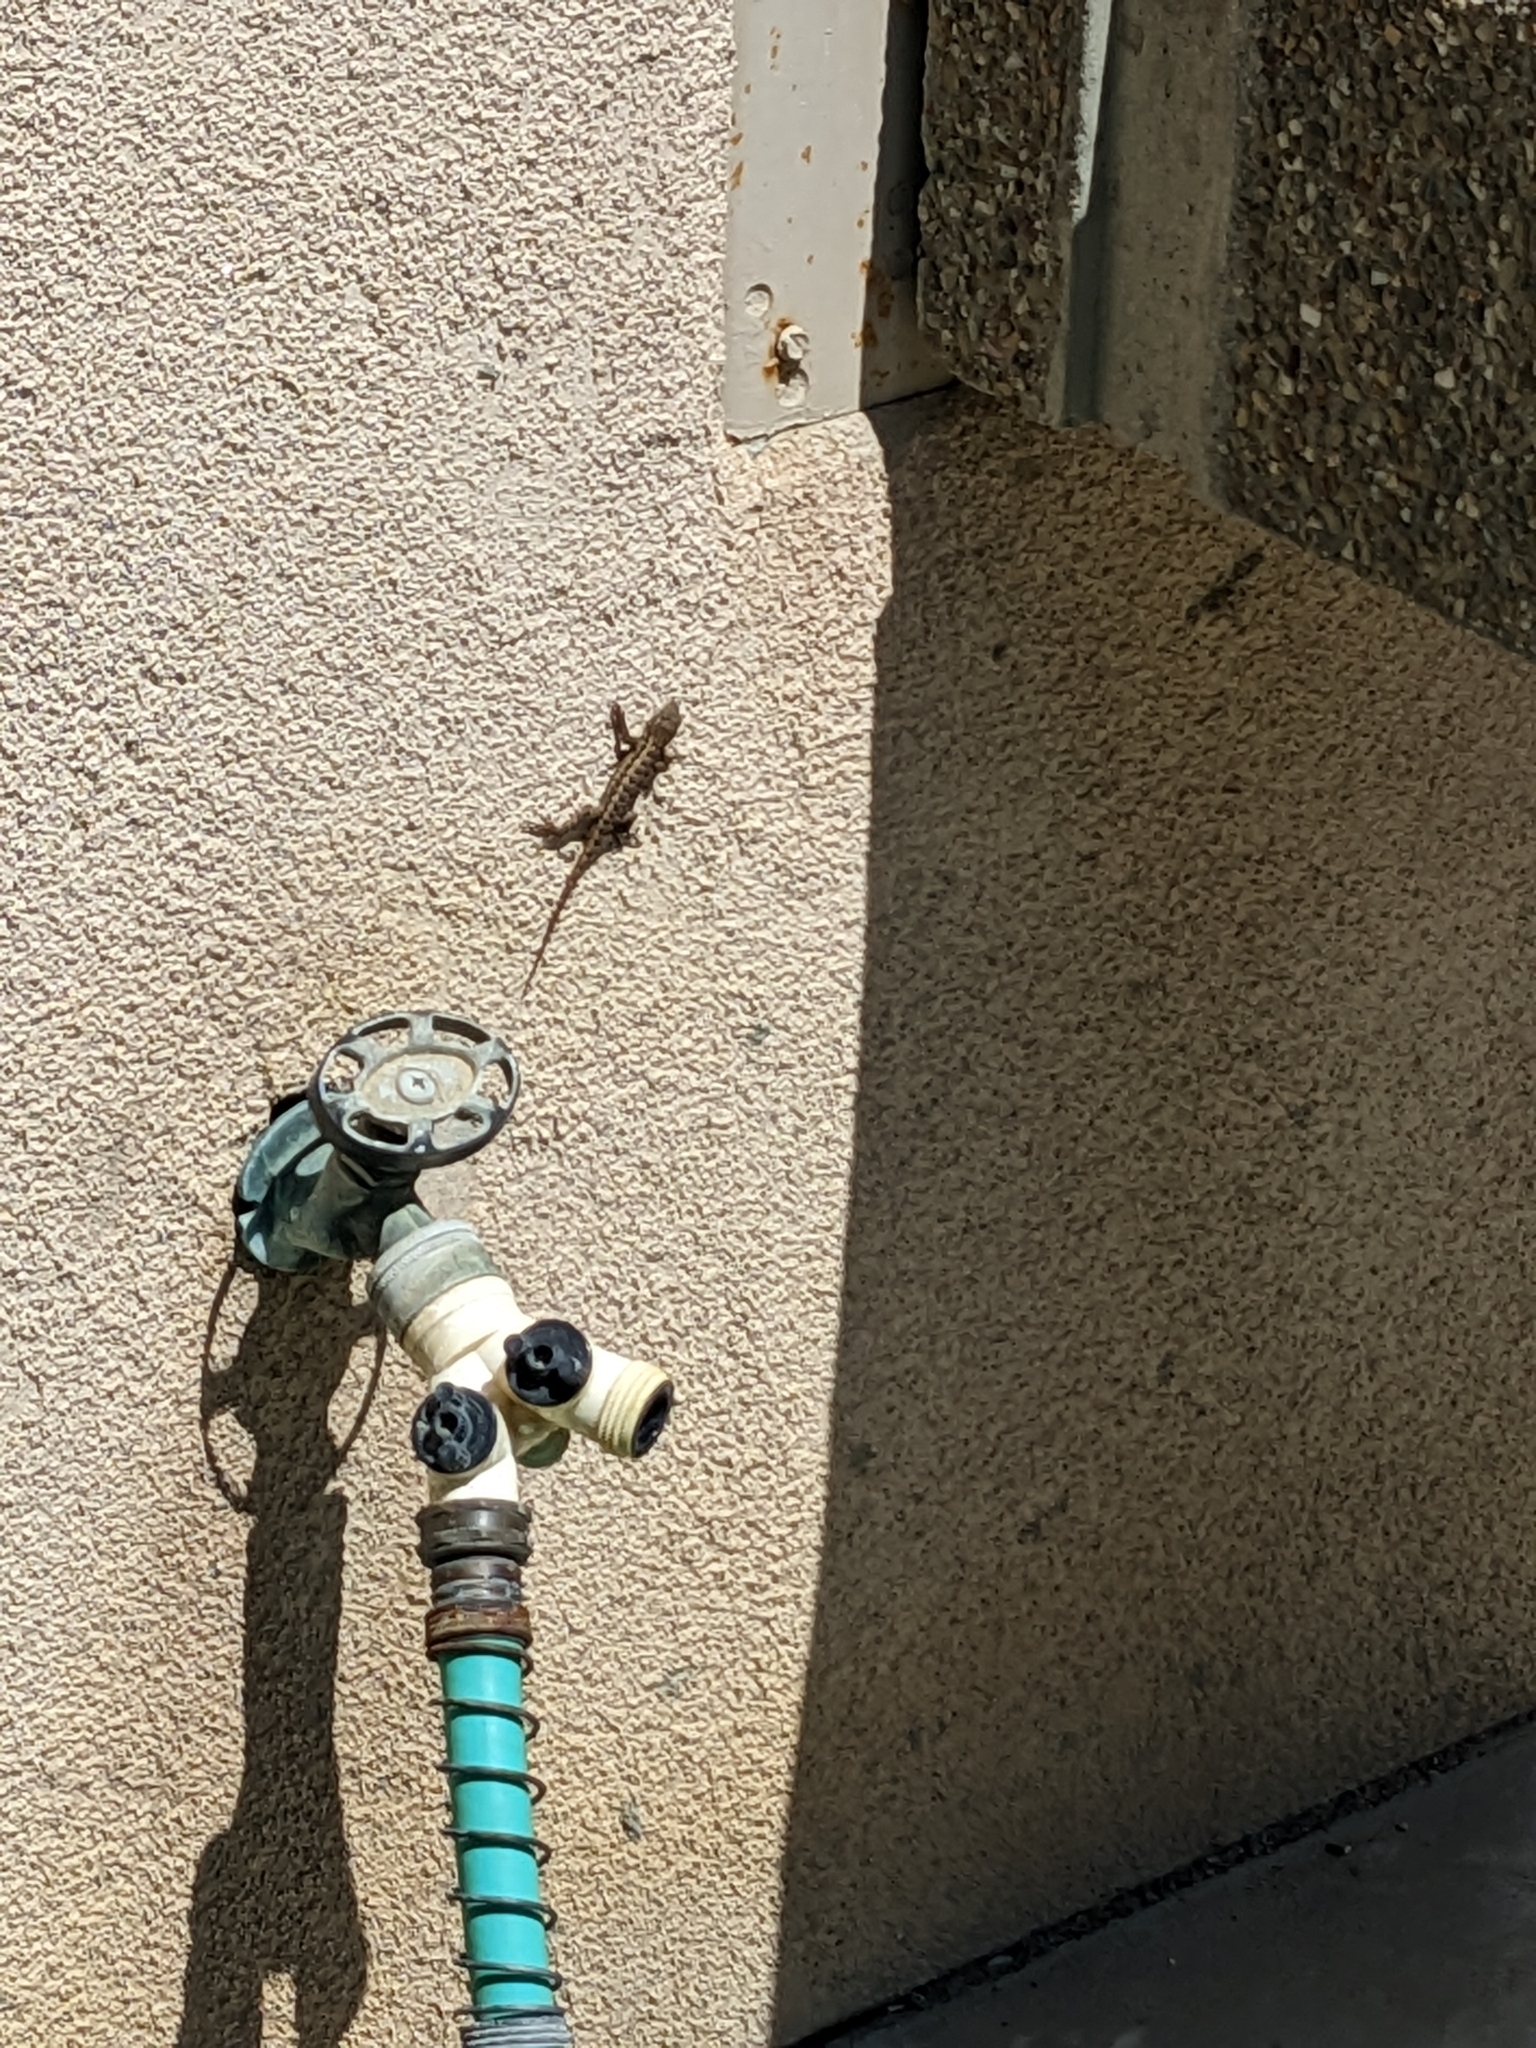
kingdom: Animalia
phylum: Chordata
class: Squamata
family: Phrynosomatidae
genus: Sceloporus
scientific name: Sceloporus occidentalis
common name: Western fence lizard
